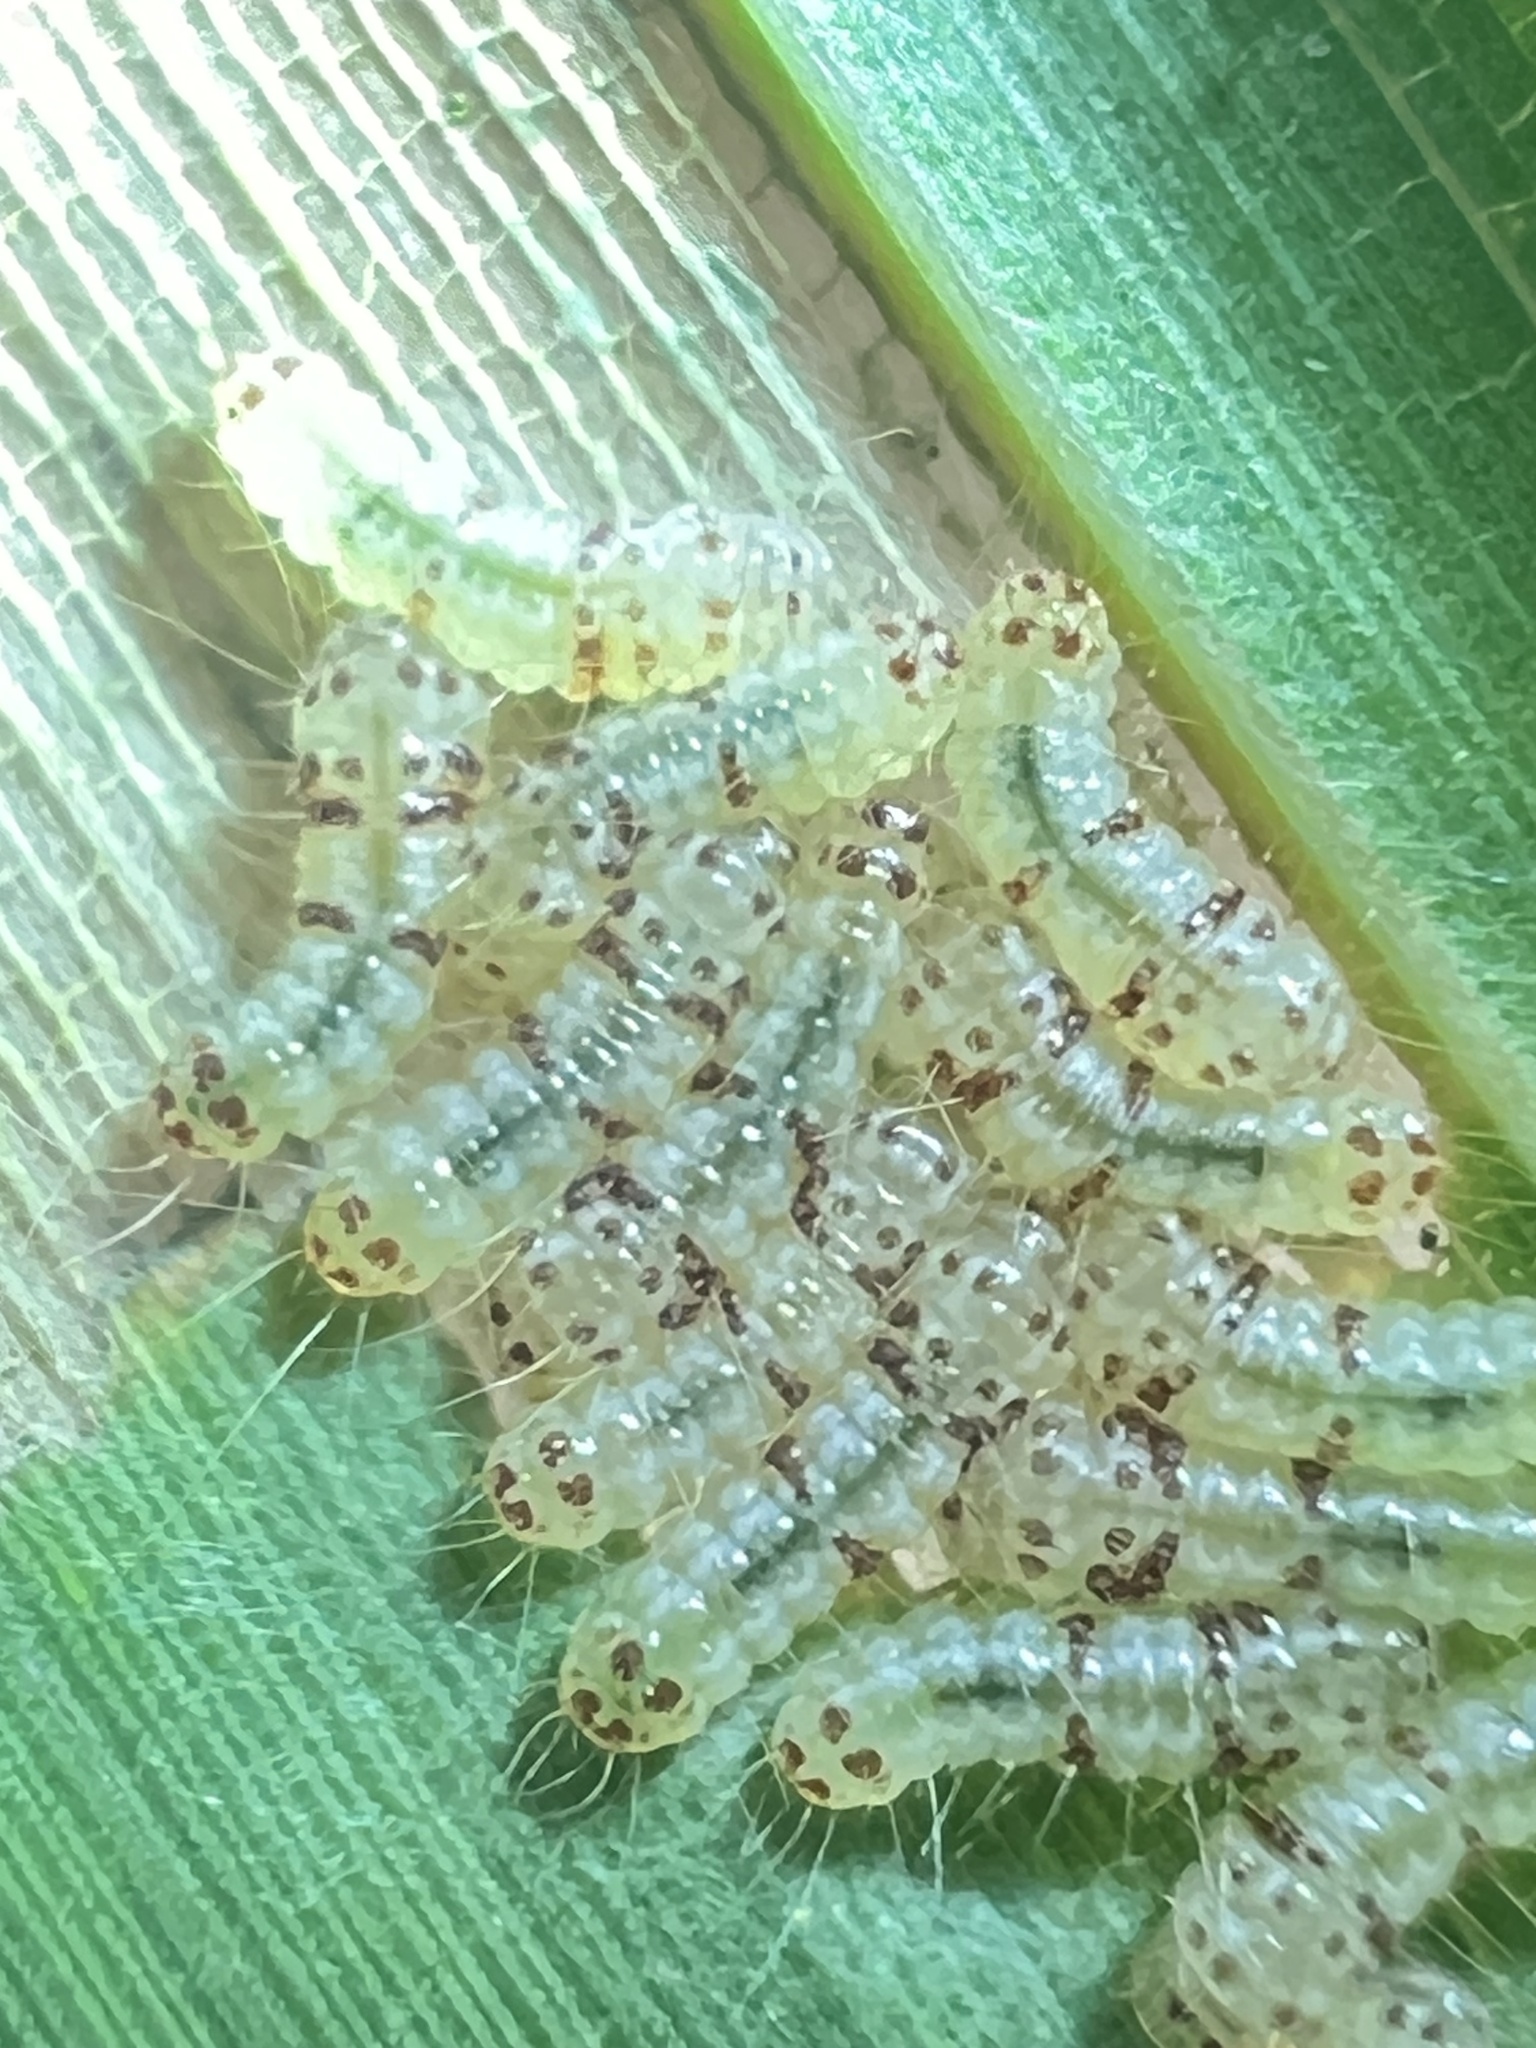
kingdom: Animalia
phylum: Arthropoda
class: Insecta
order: Lepidoptera
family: Zygaenidae
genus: Artona
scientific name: Artona martini
